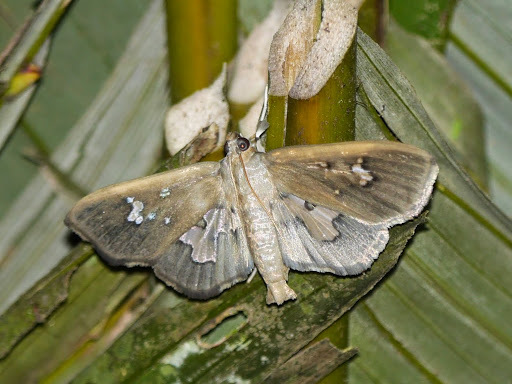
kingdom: Animalia
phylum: Arthropoda
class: Insecta
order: Lepidoptera
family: Crambidae
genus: Eporidia
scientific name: Eporidia dariusalis
